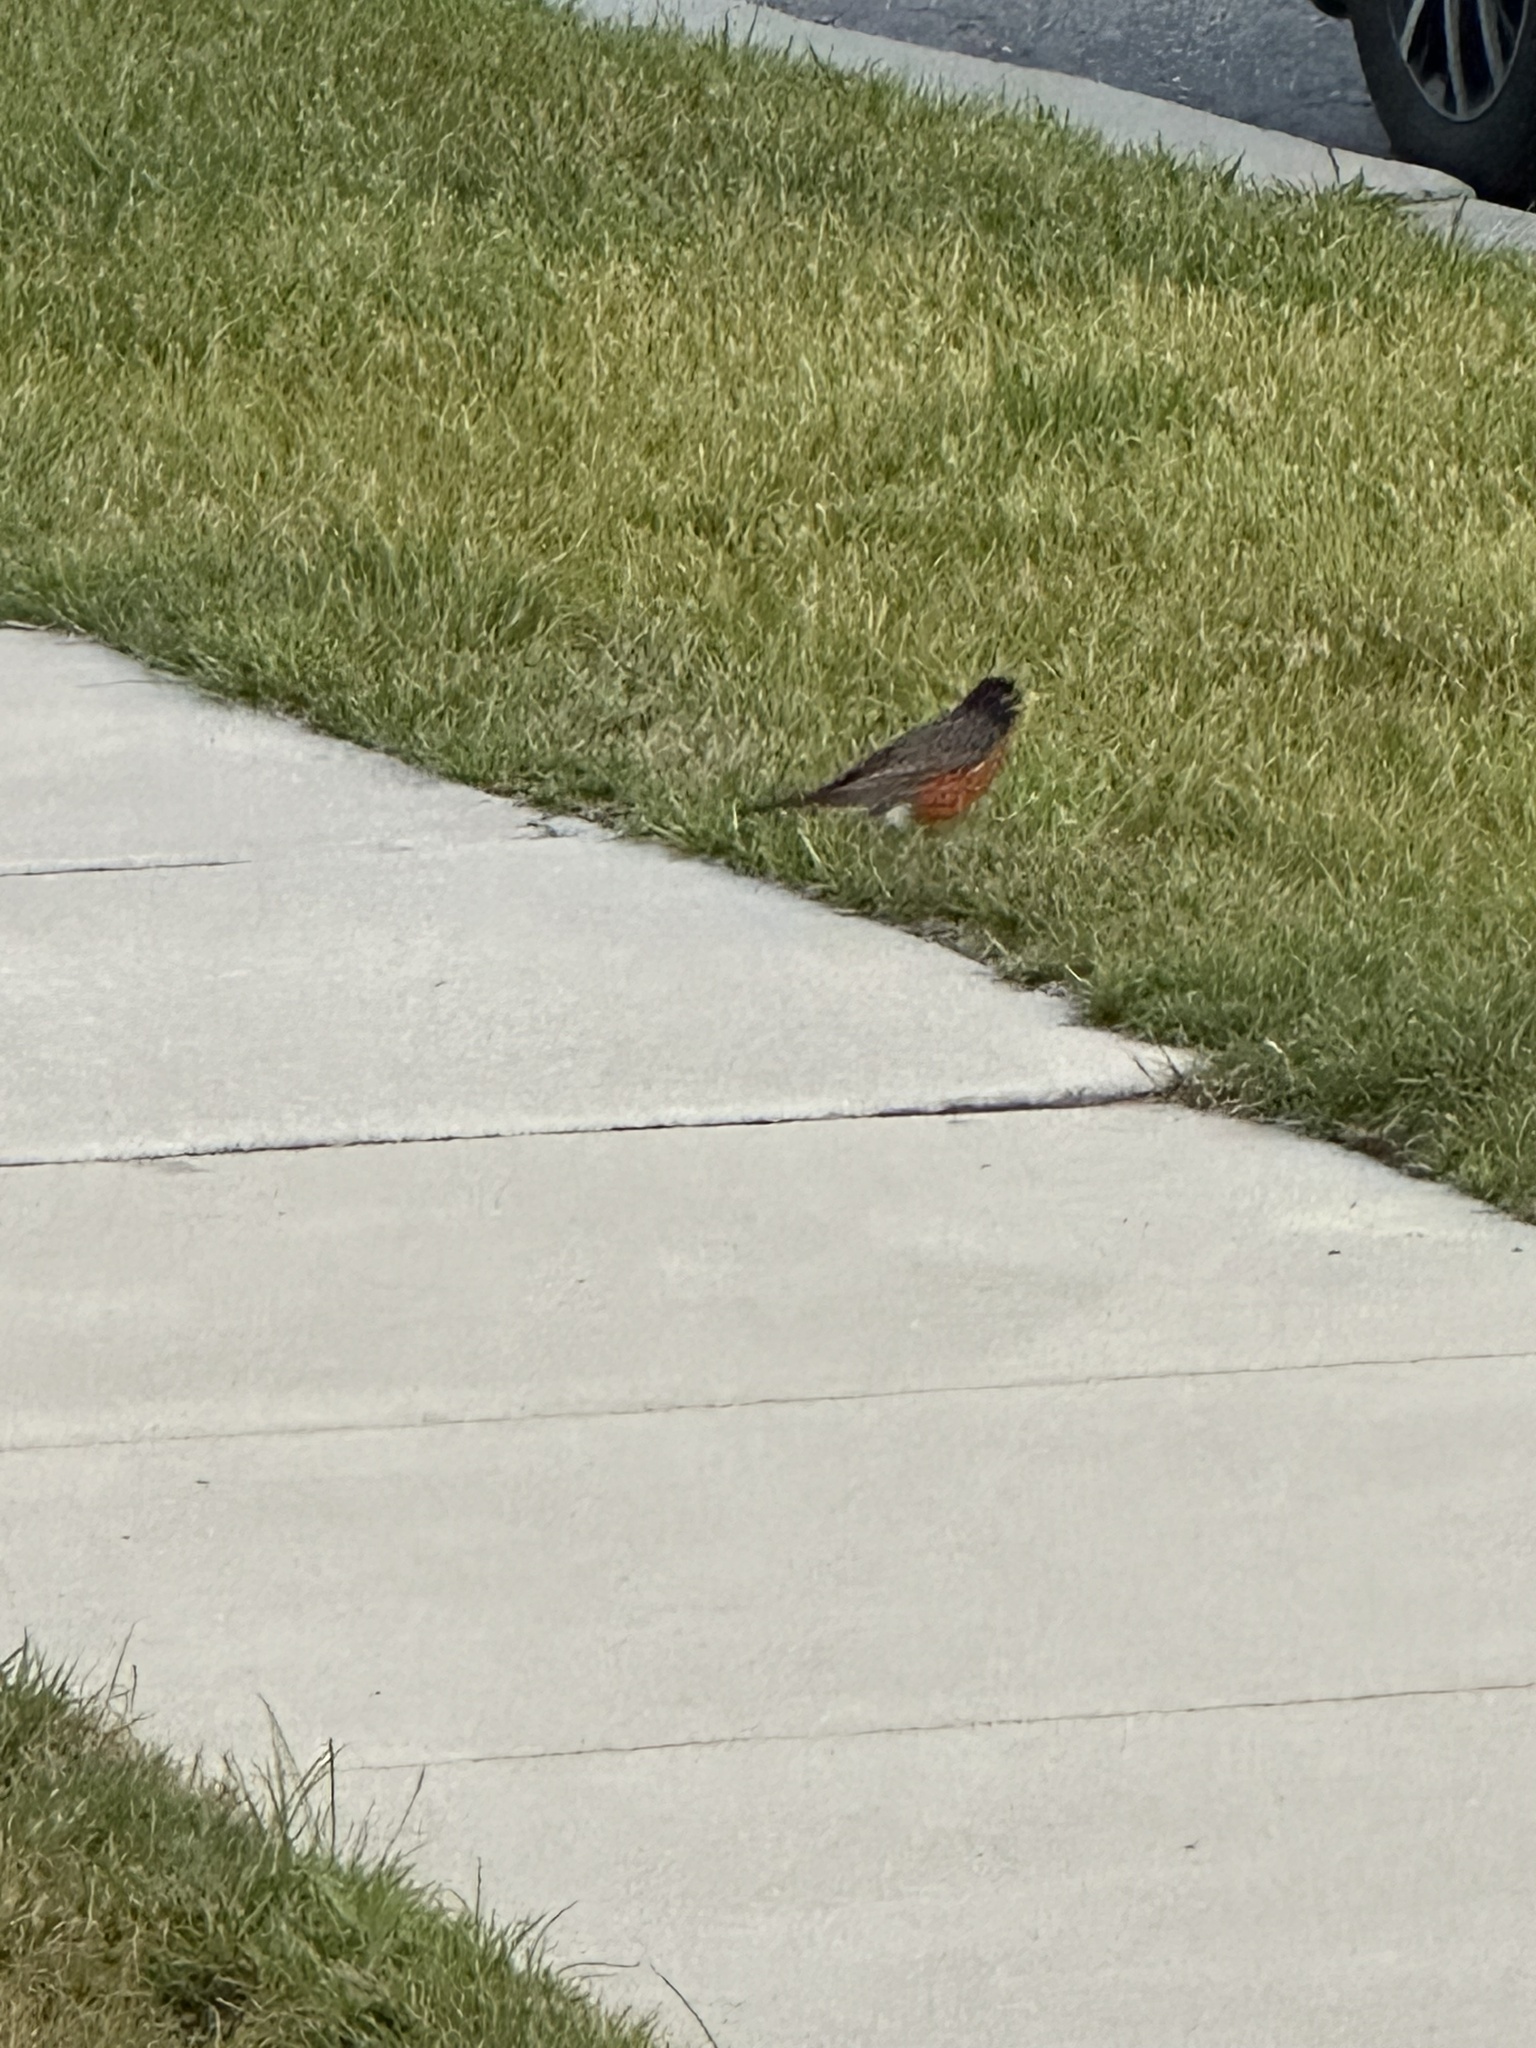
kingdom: Animalia
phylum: Chordata
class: Aves
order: Passeriformes
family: Turdidae
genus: Turdus
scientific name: Turdus migratorius
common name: American robin
